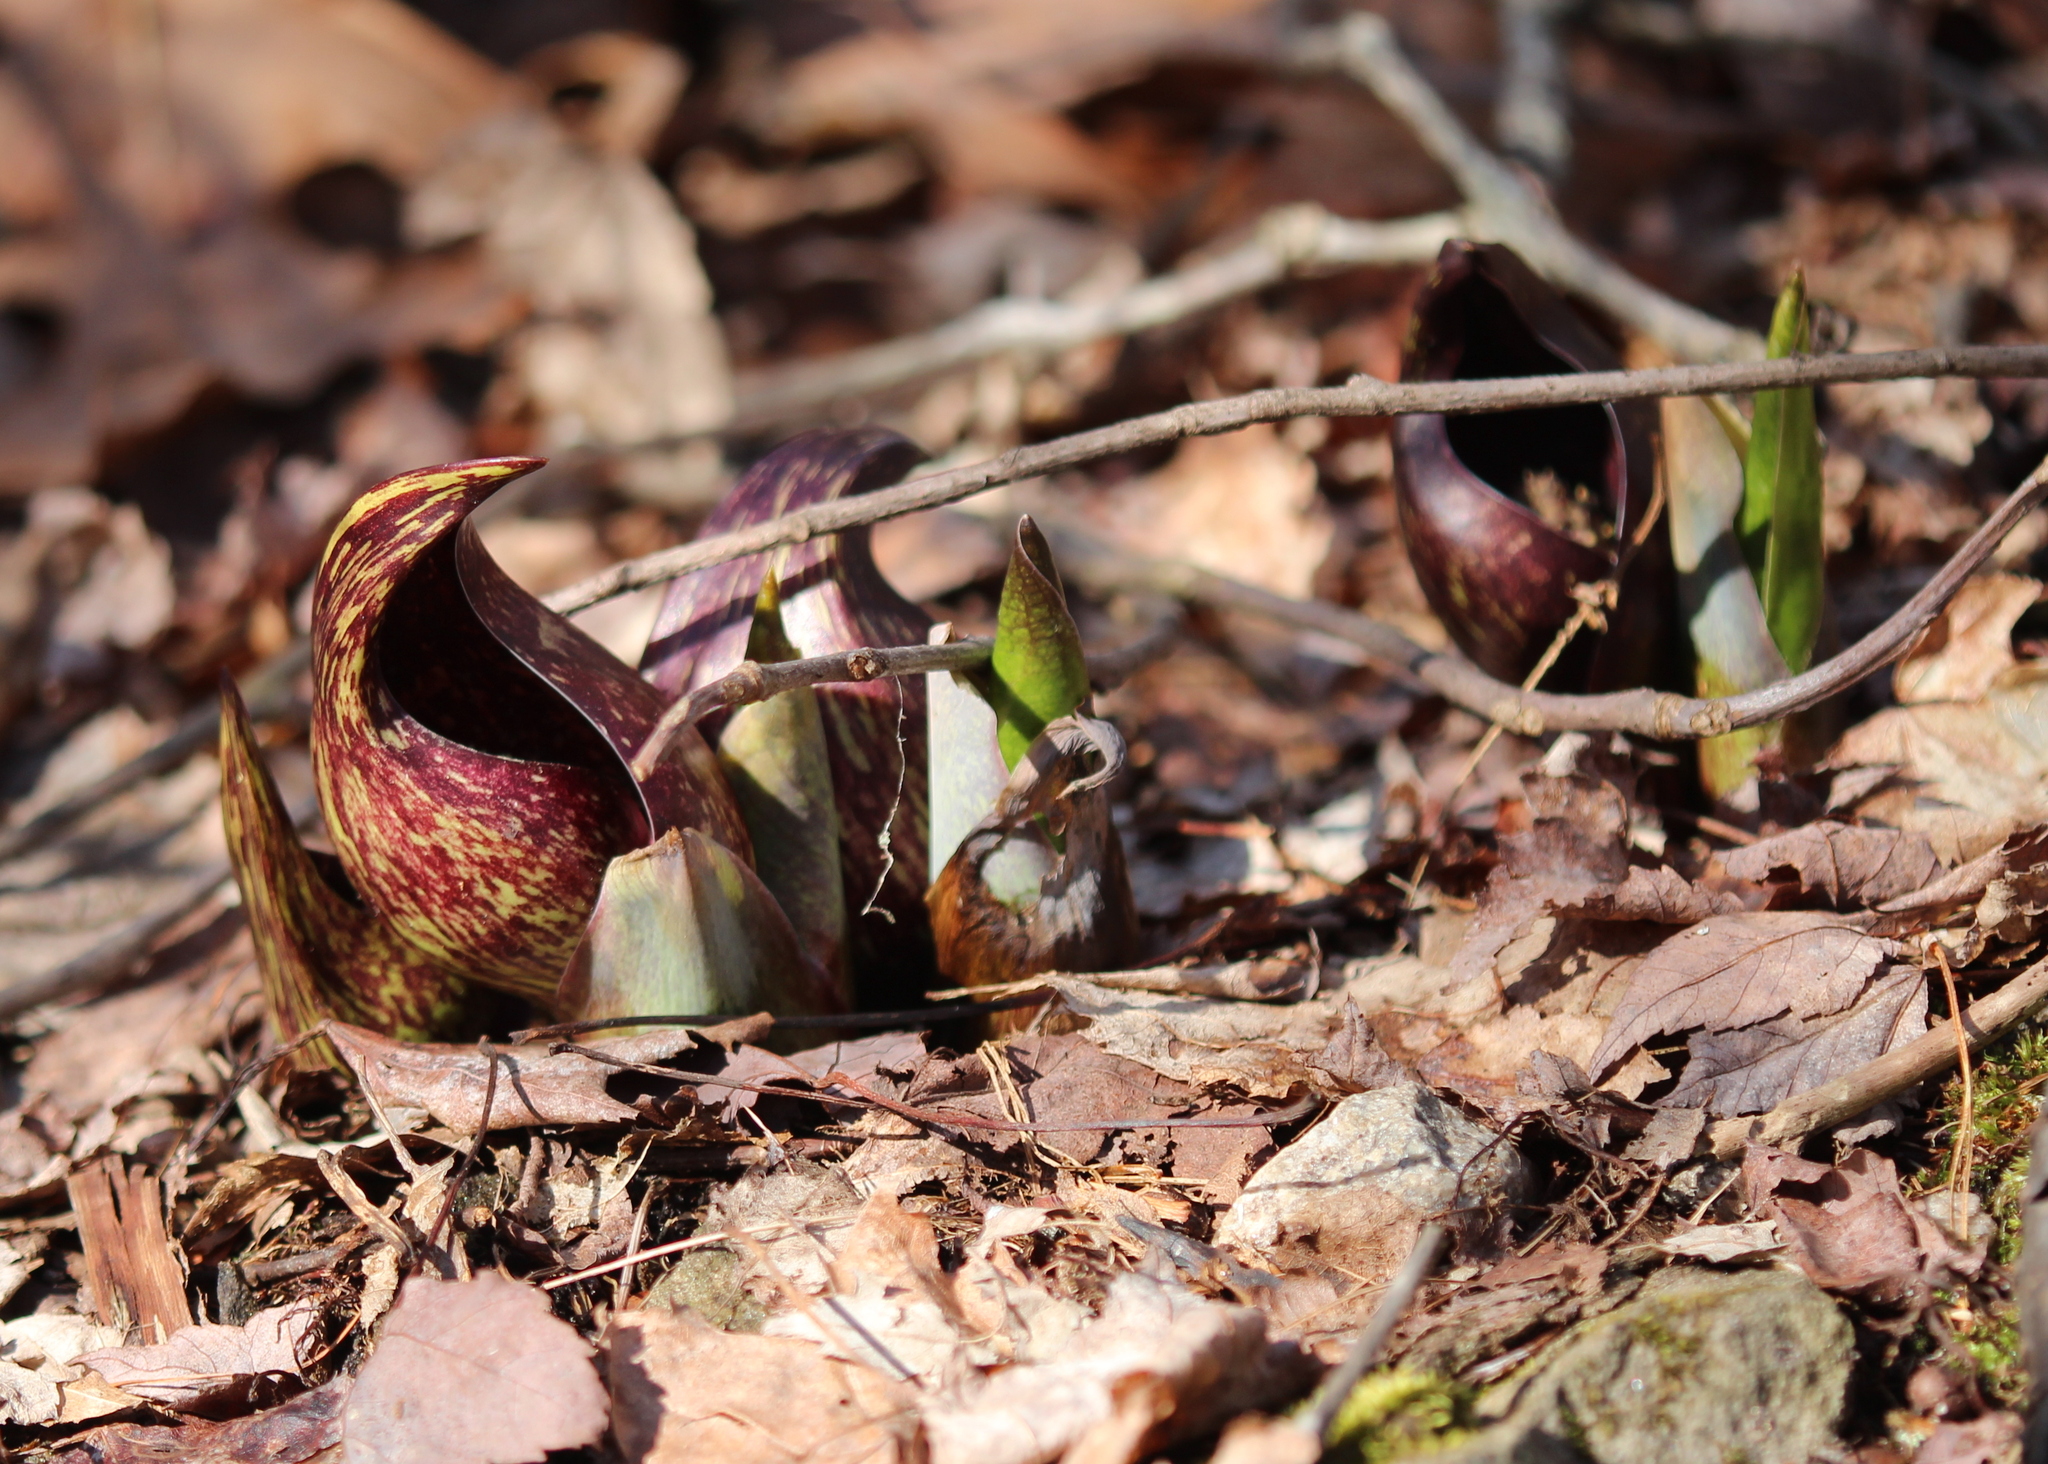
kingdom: Plantae
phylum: Tracheophyta
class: Liliopsida
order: Alismatales
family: Araceae
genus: Symplocarpus
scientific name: Symplocarpus foetidus
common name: Eastern skunk cabbage
